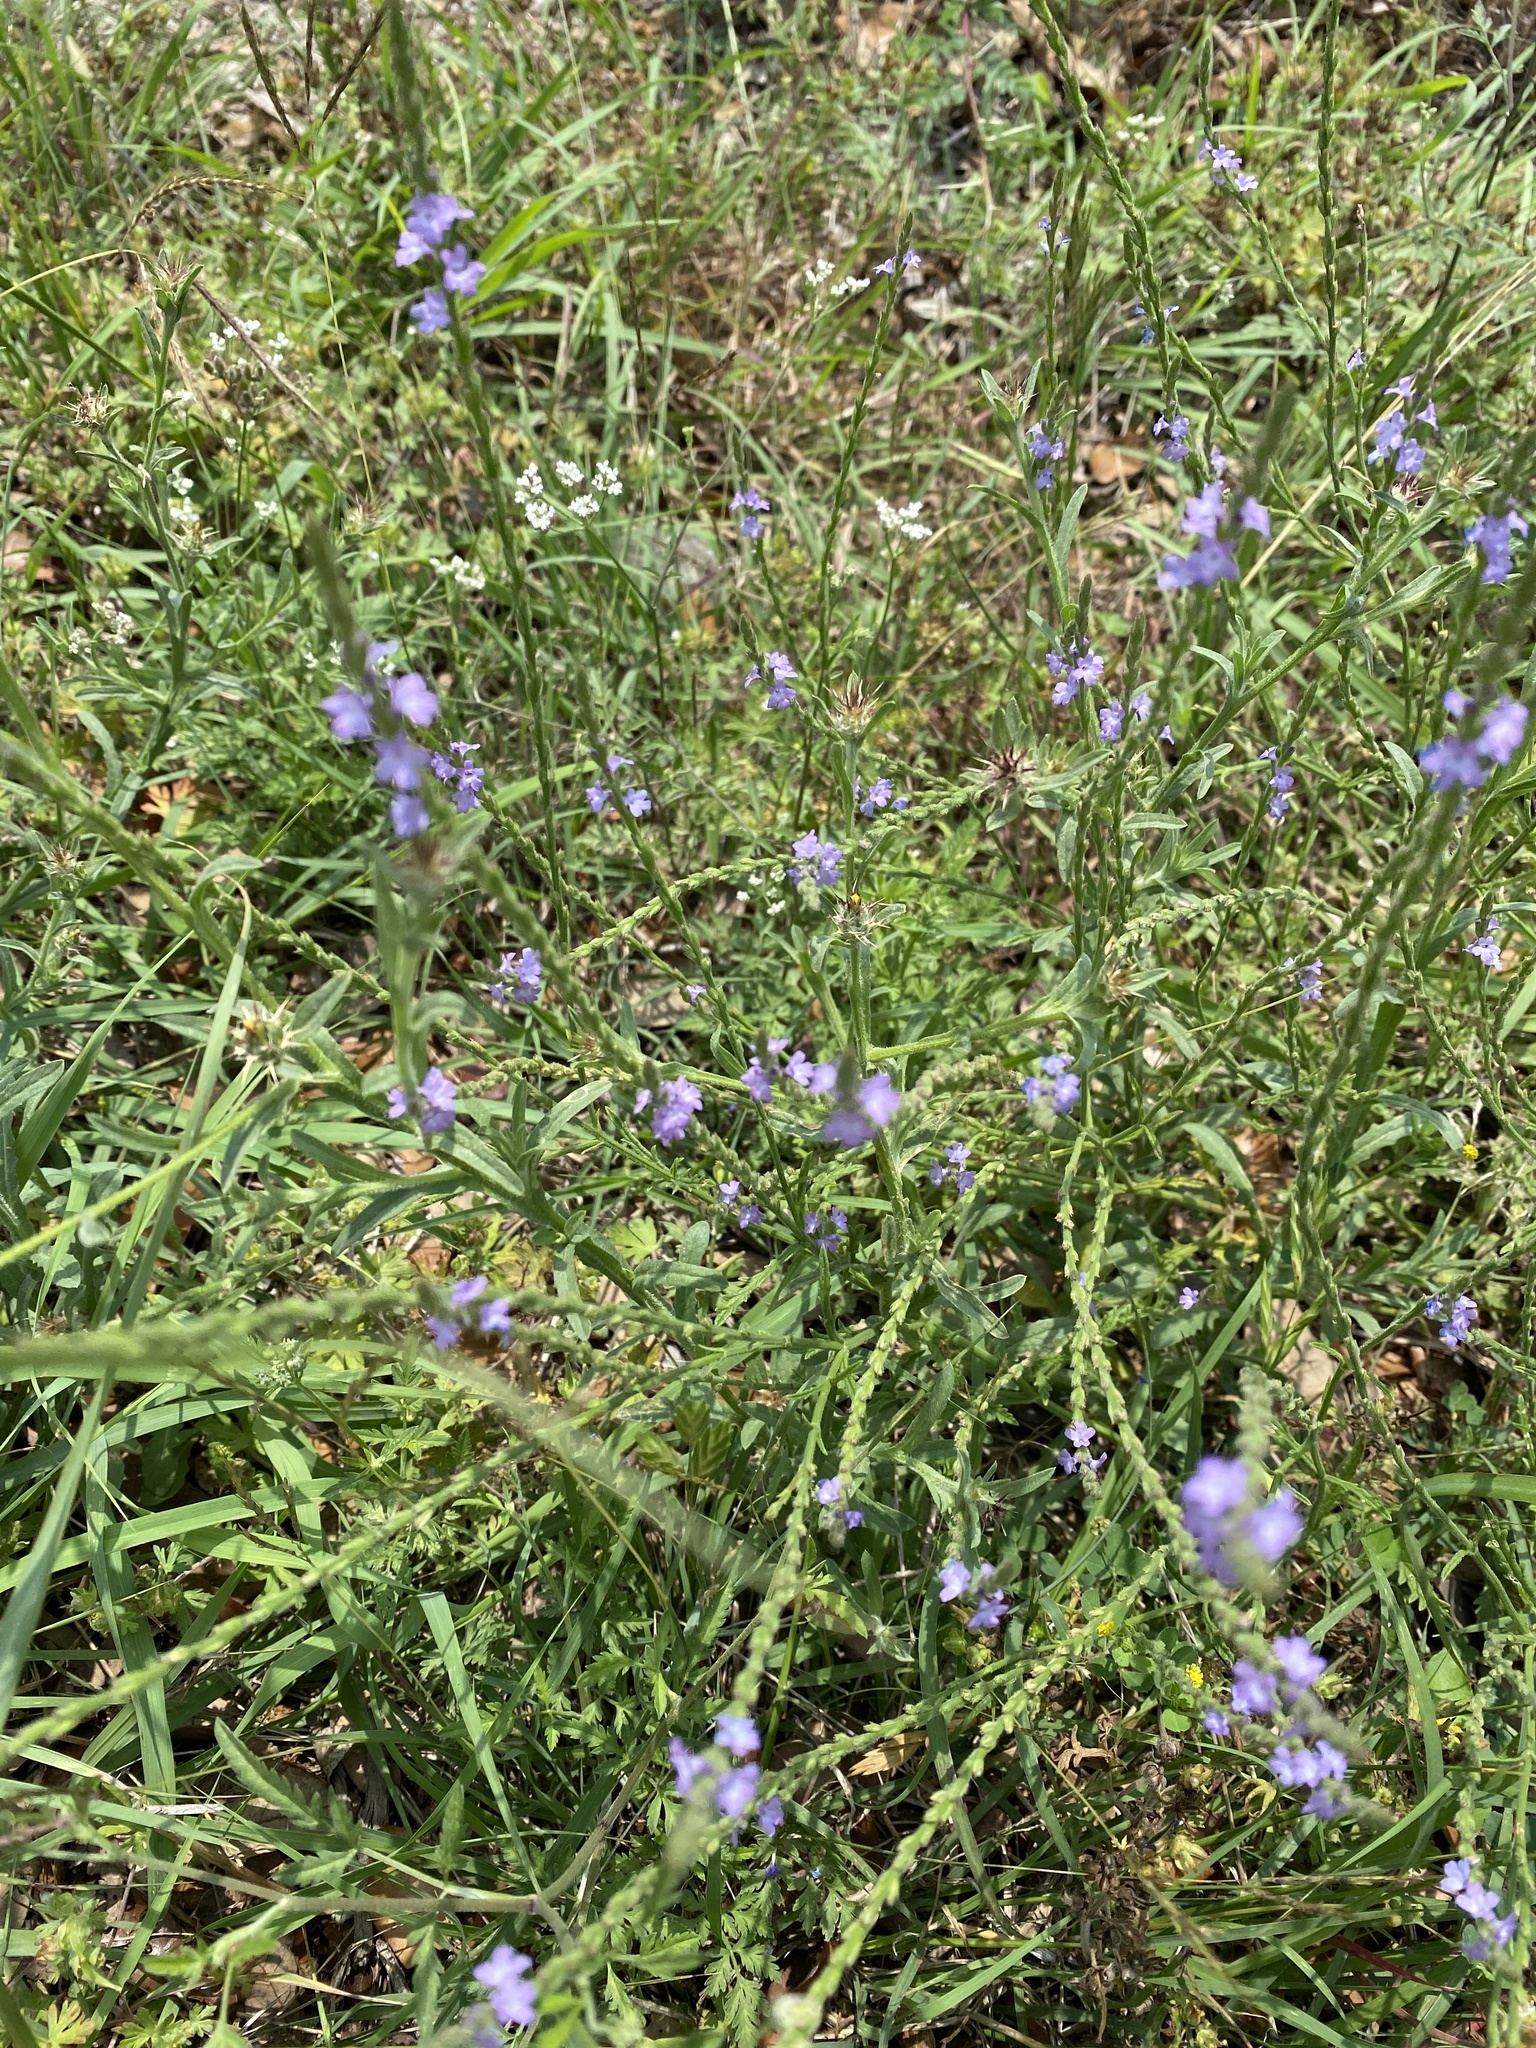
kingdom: Plantae
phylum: Tracheophyta
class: Magnoliopsida
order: Lamiales
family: Verbenaceae
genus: Verbena
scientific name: Verbena halei
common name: Texas vervain
